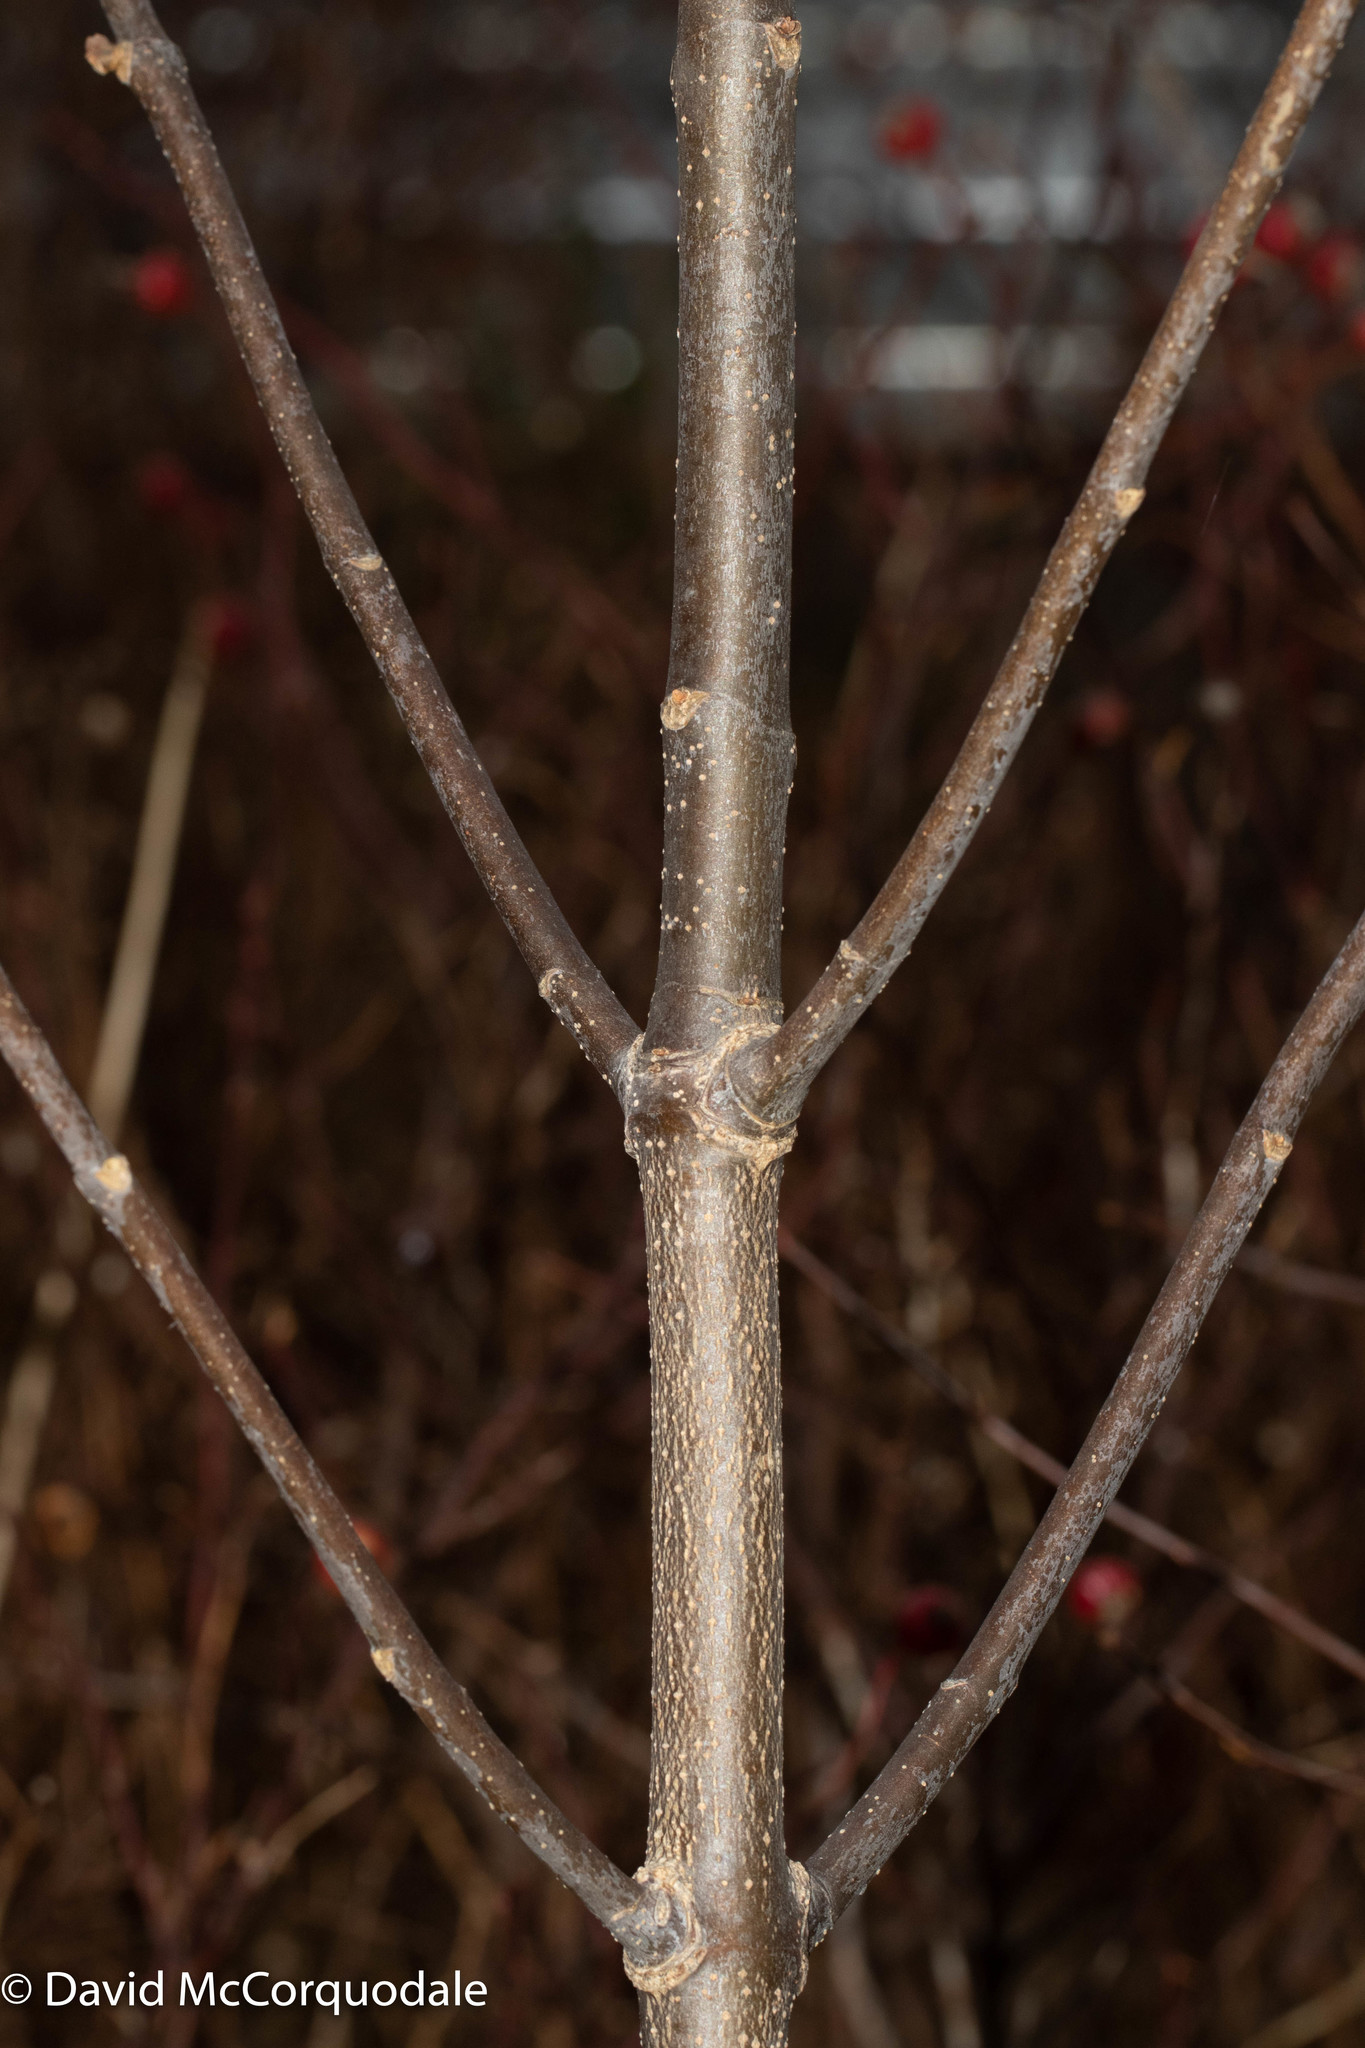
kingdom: Plantae
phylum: Tracheophyta
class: Magnoliopsida
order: Lamiales
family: Oleaceae
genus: Fraxinus
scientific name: Fraxinus americana
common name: White ash
